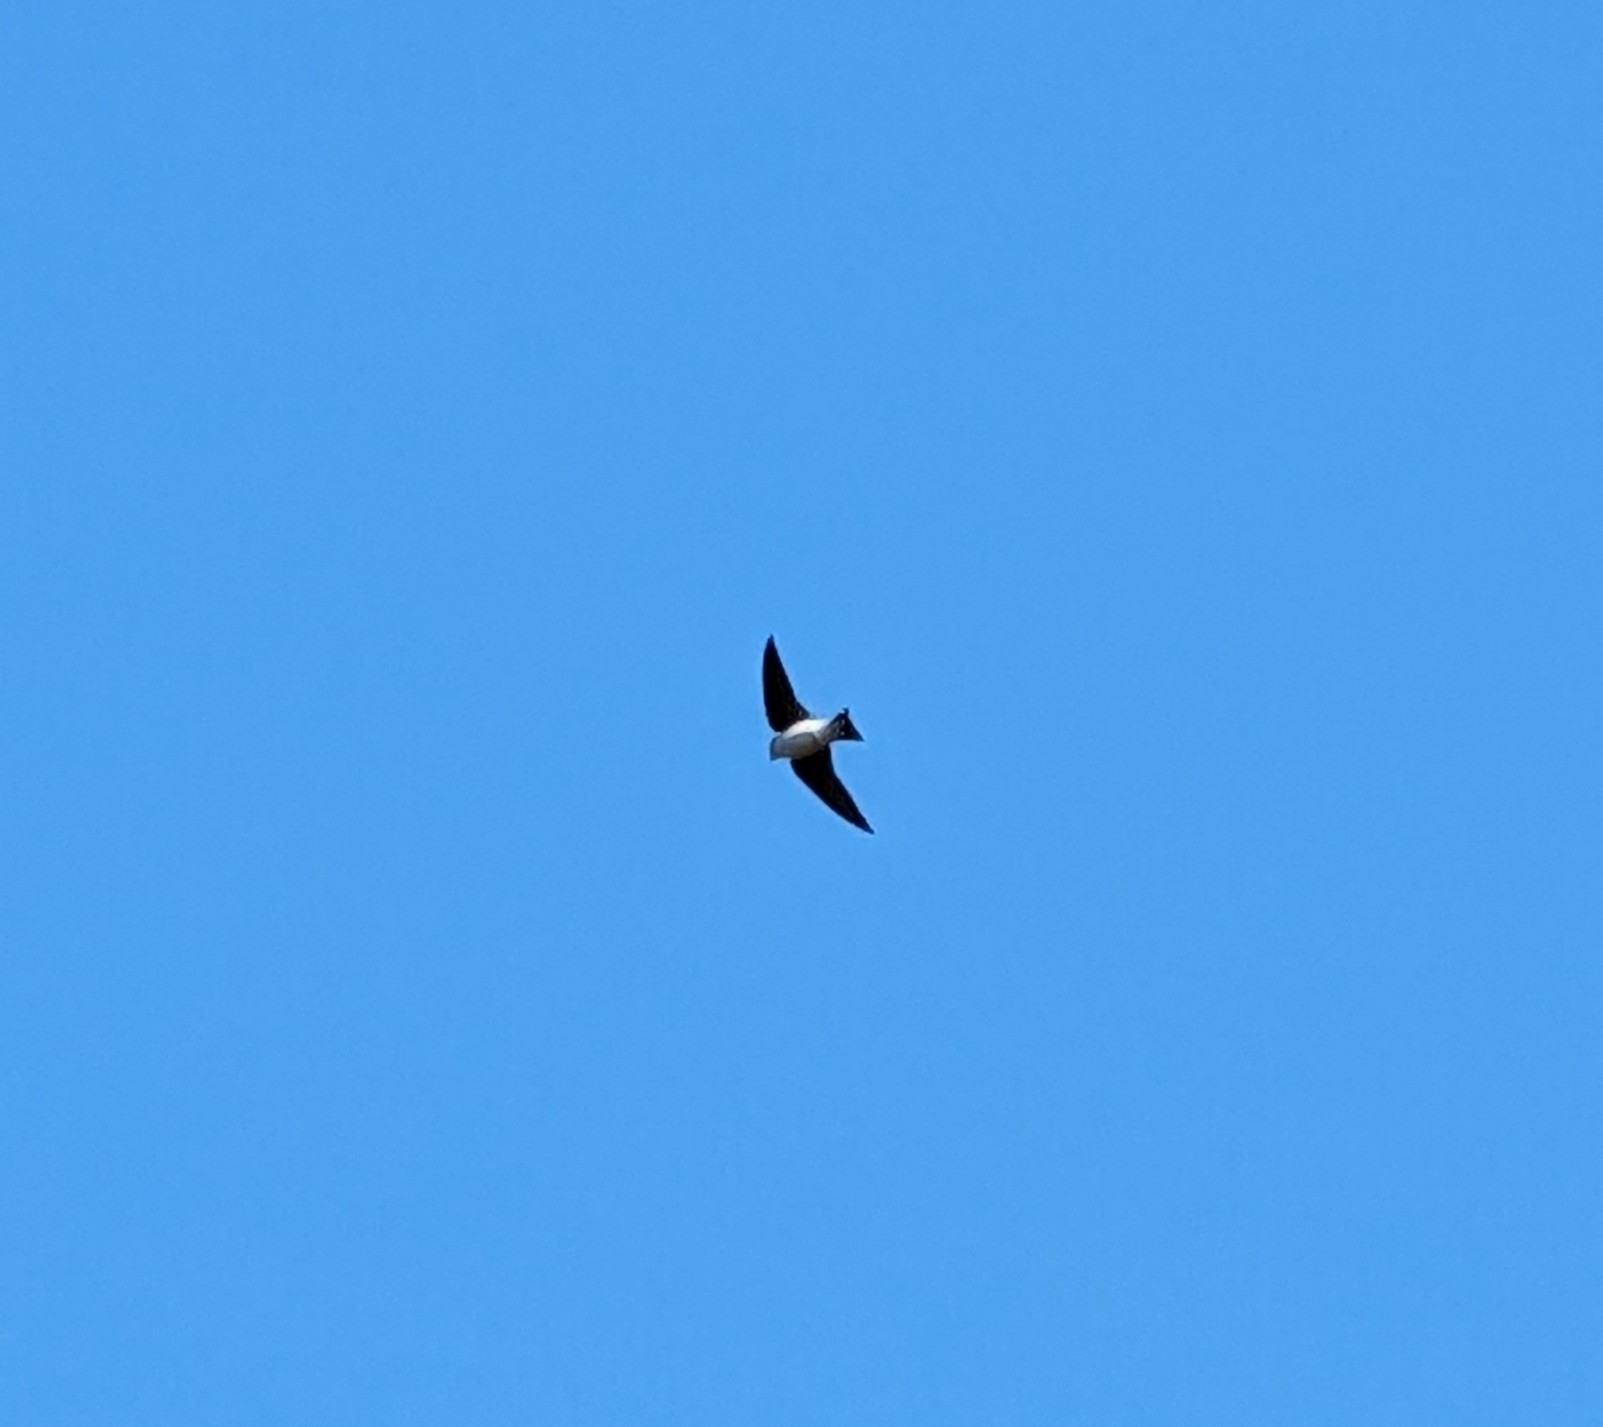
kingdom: Animalia
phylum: Chordata
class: Aves
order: Passeriformes
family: Hirundinidae
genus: Tachycineta
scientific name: Tachycineta bicolor
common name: Tree swallow
